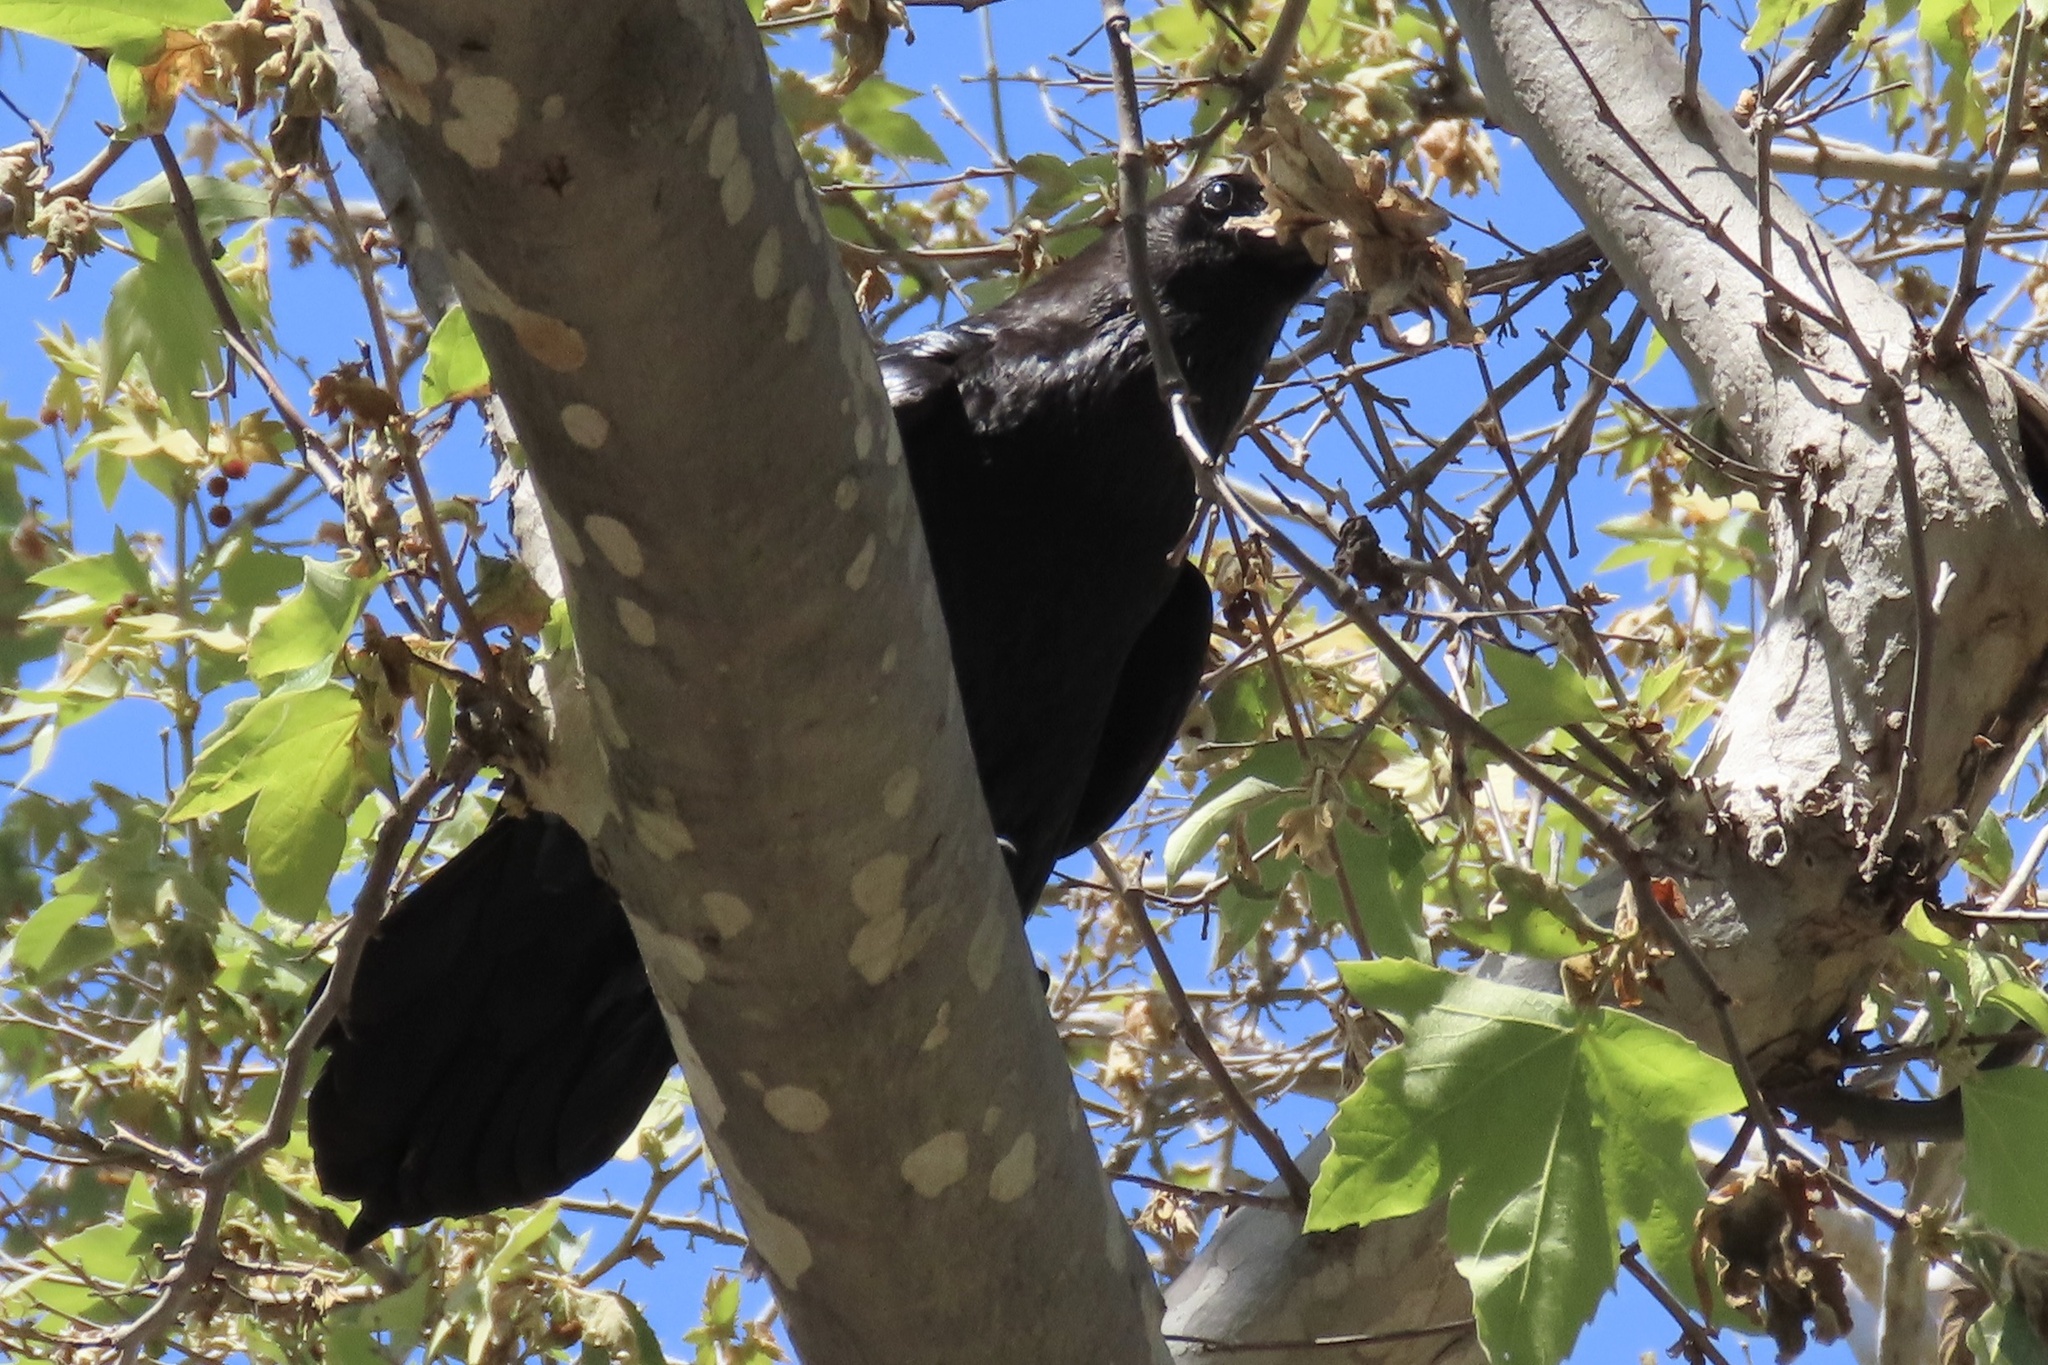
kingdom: Animalia
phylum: Chordata
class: Aves
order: Passeriformes
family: Corvidae
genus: Corvus
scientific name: Corvus corax
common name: Common raven
